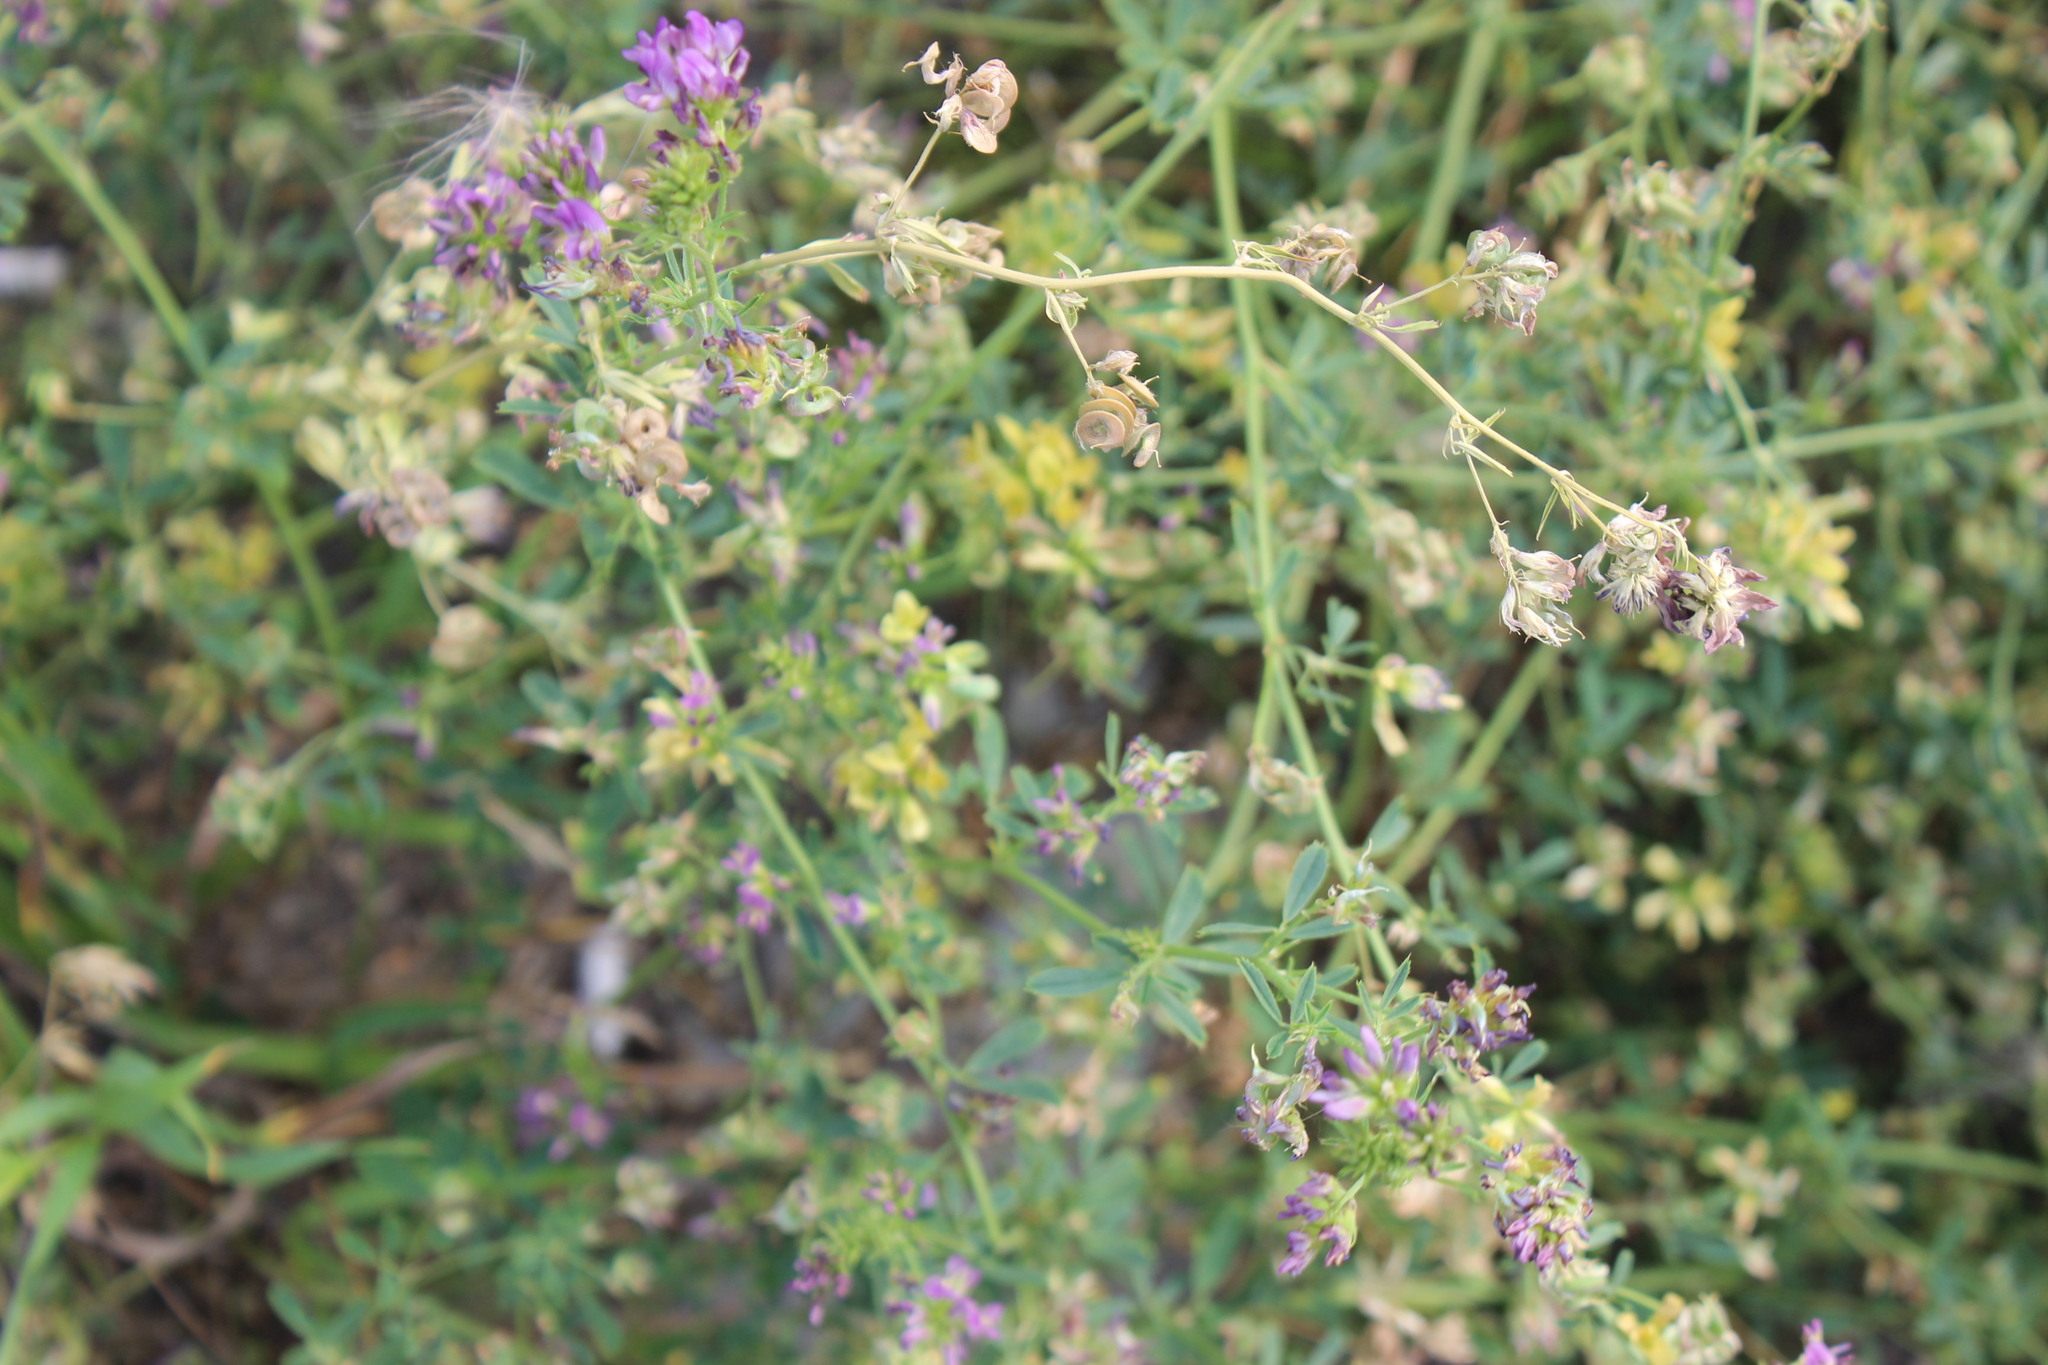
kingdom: Plantae
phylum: Tracheophyta
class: Magnoliopsida
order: Fabales
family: Fabaceae
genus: Medicago
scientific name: Medicago varia
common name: Sand lucerne
